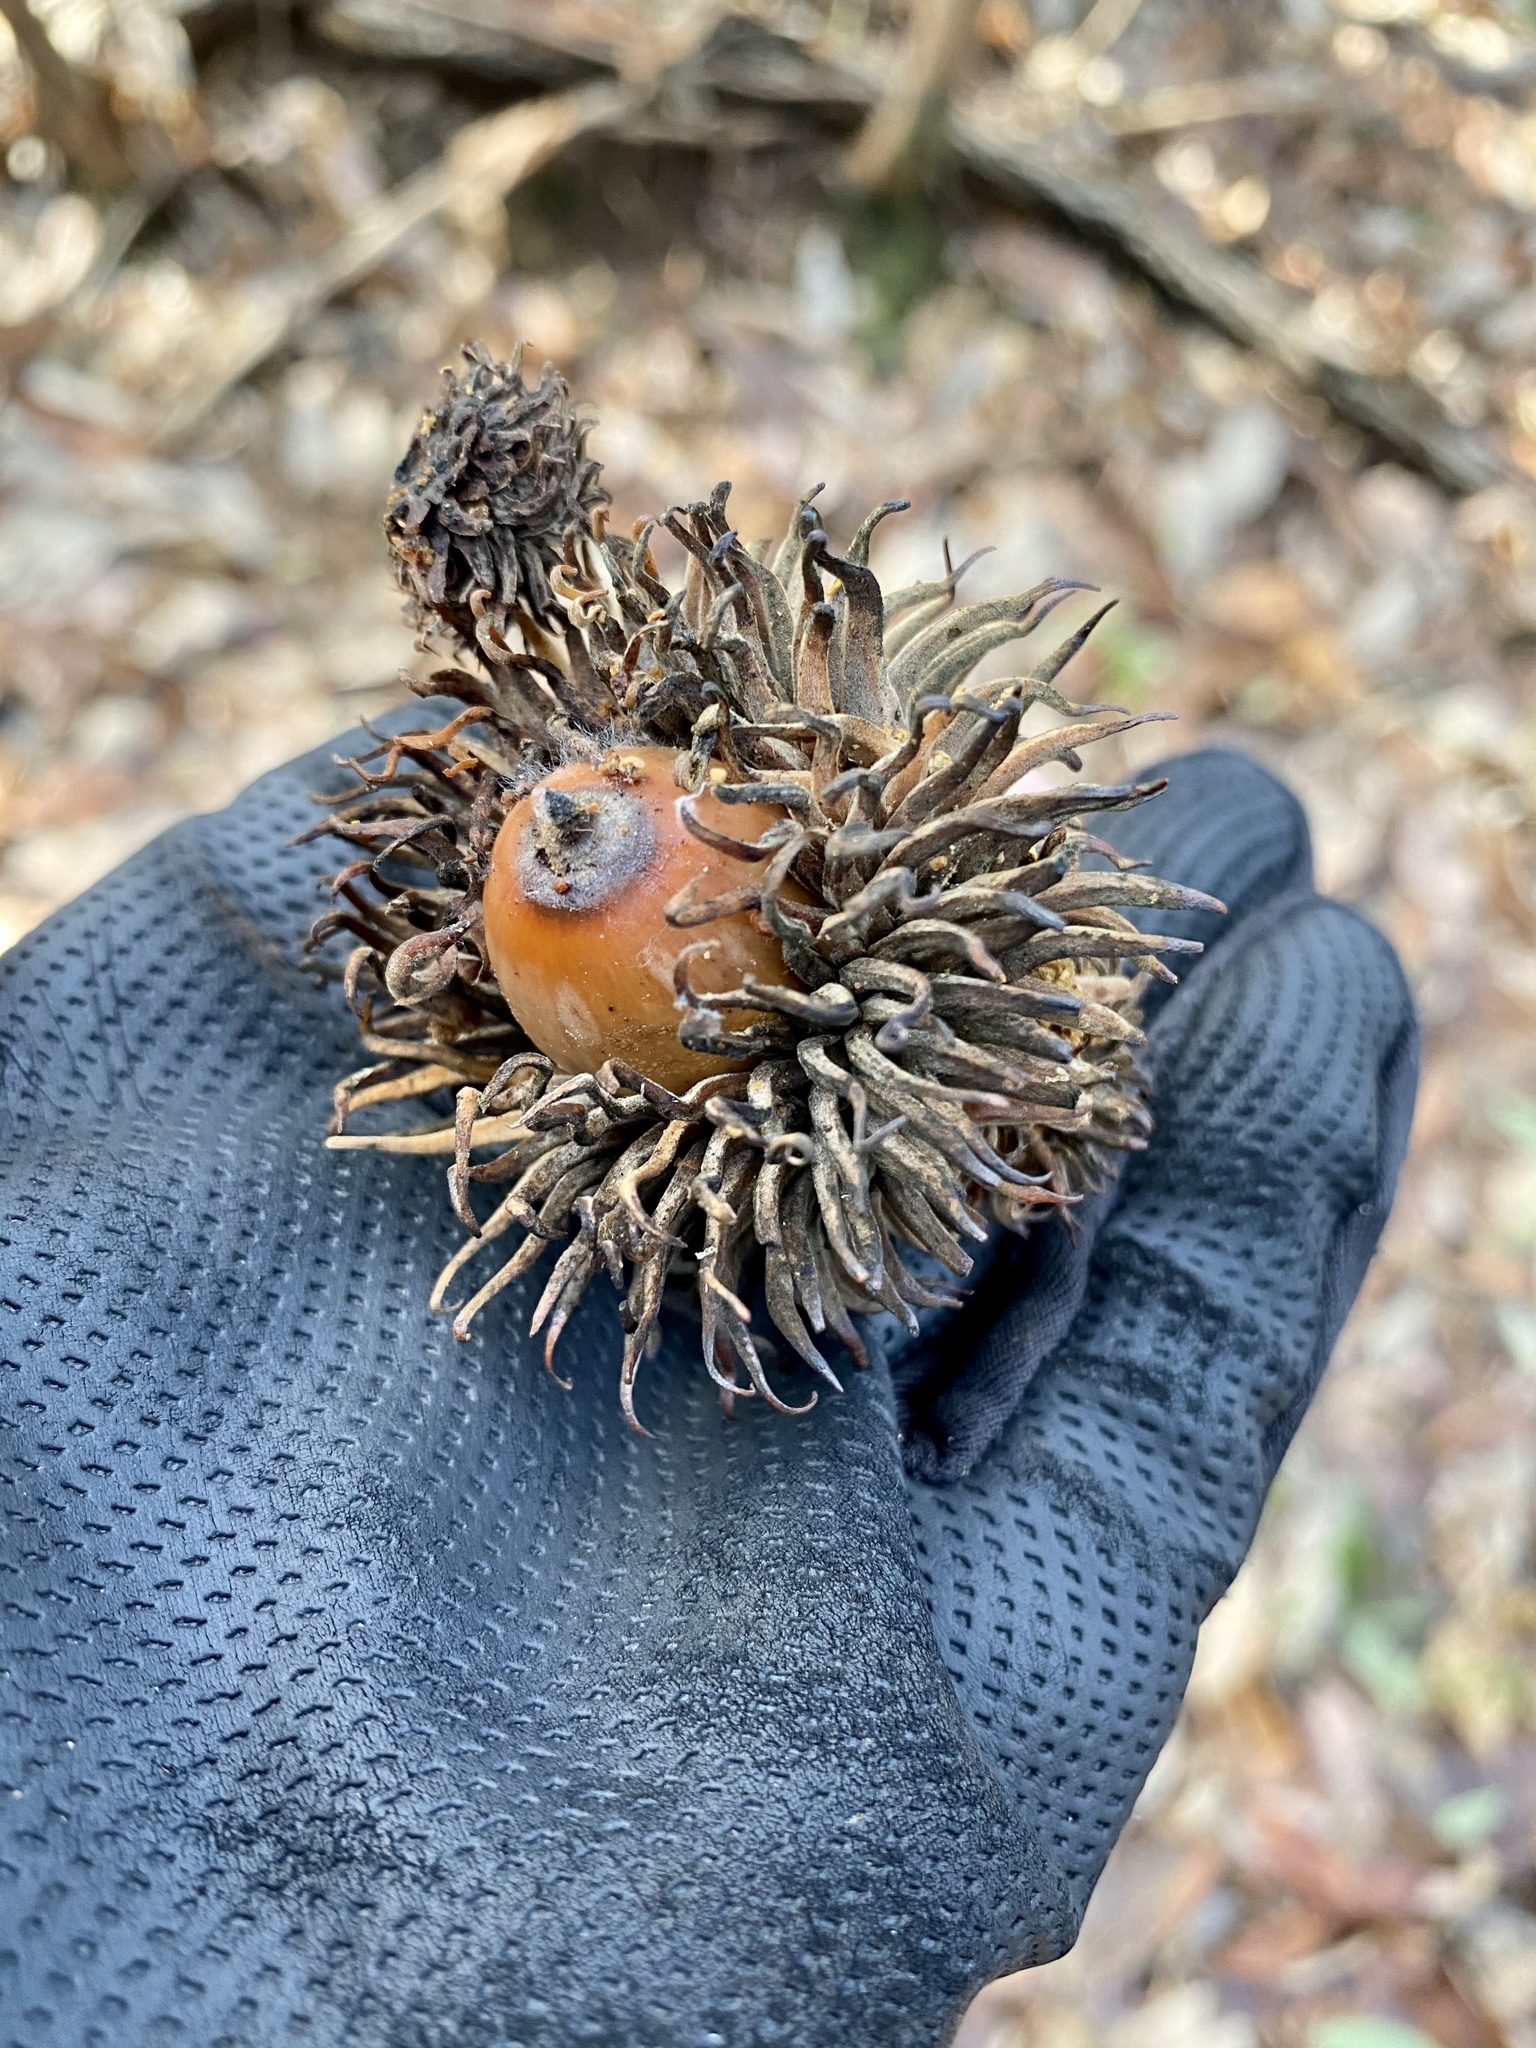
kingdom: Plantae
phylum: Tracheophyta
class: Magnoliopsida
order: Fagales
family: Fagaceae
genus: Quercus
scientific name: Quercus acutissima
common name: Sawtooth oak
